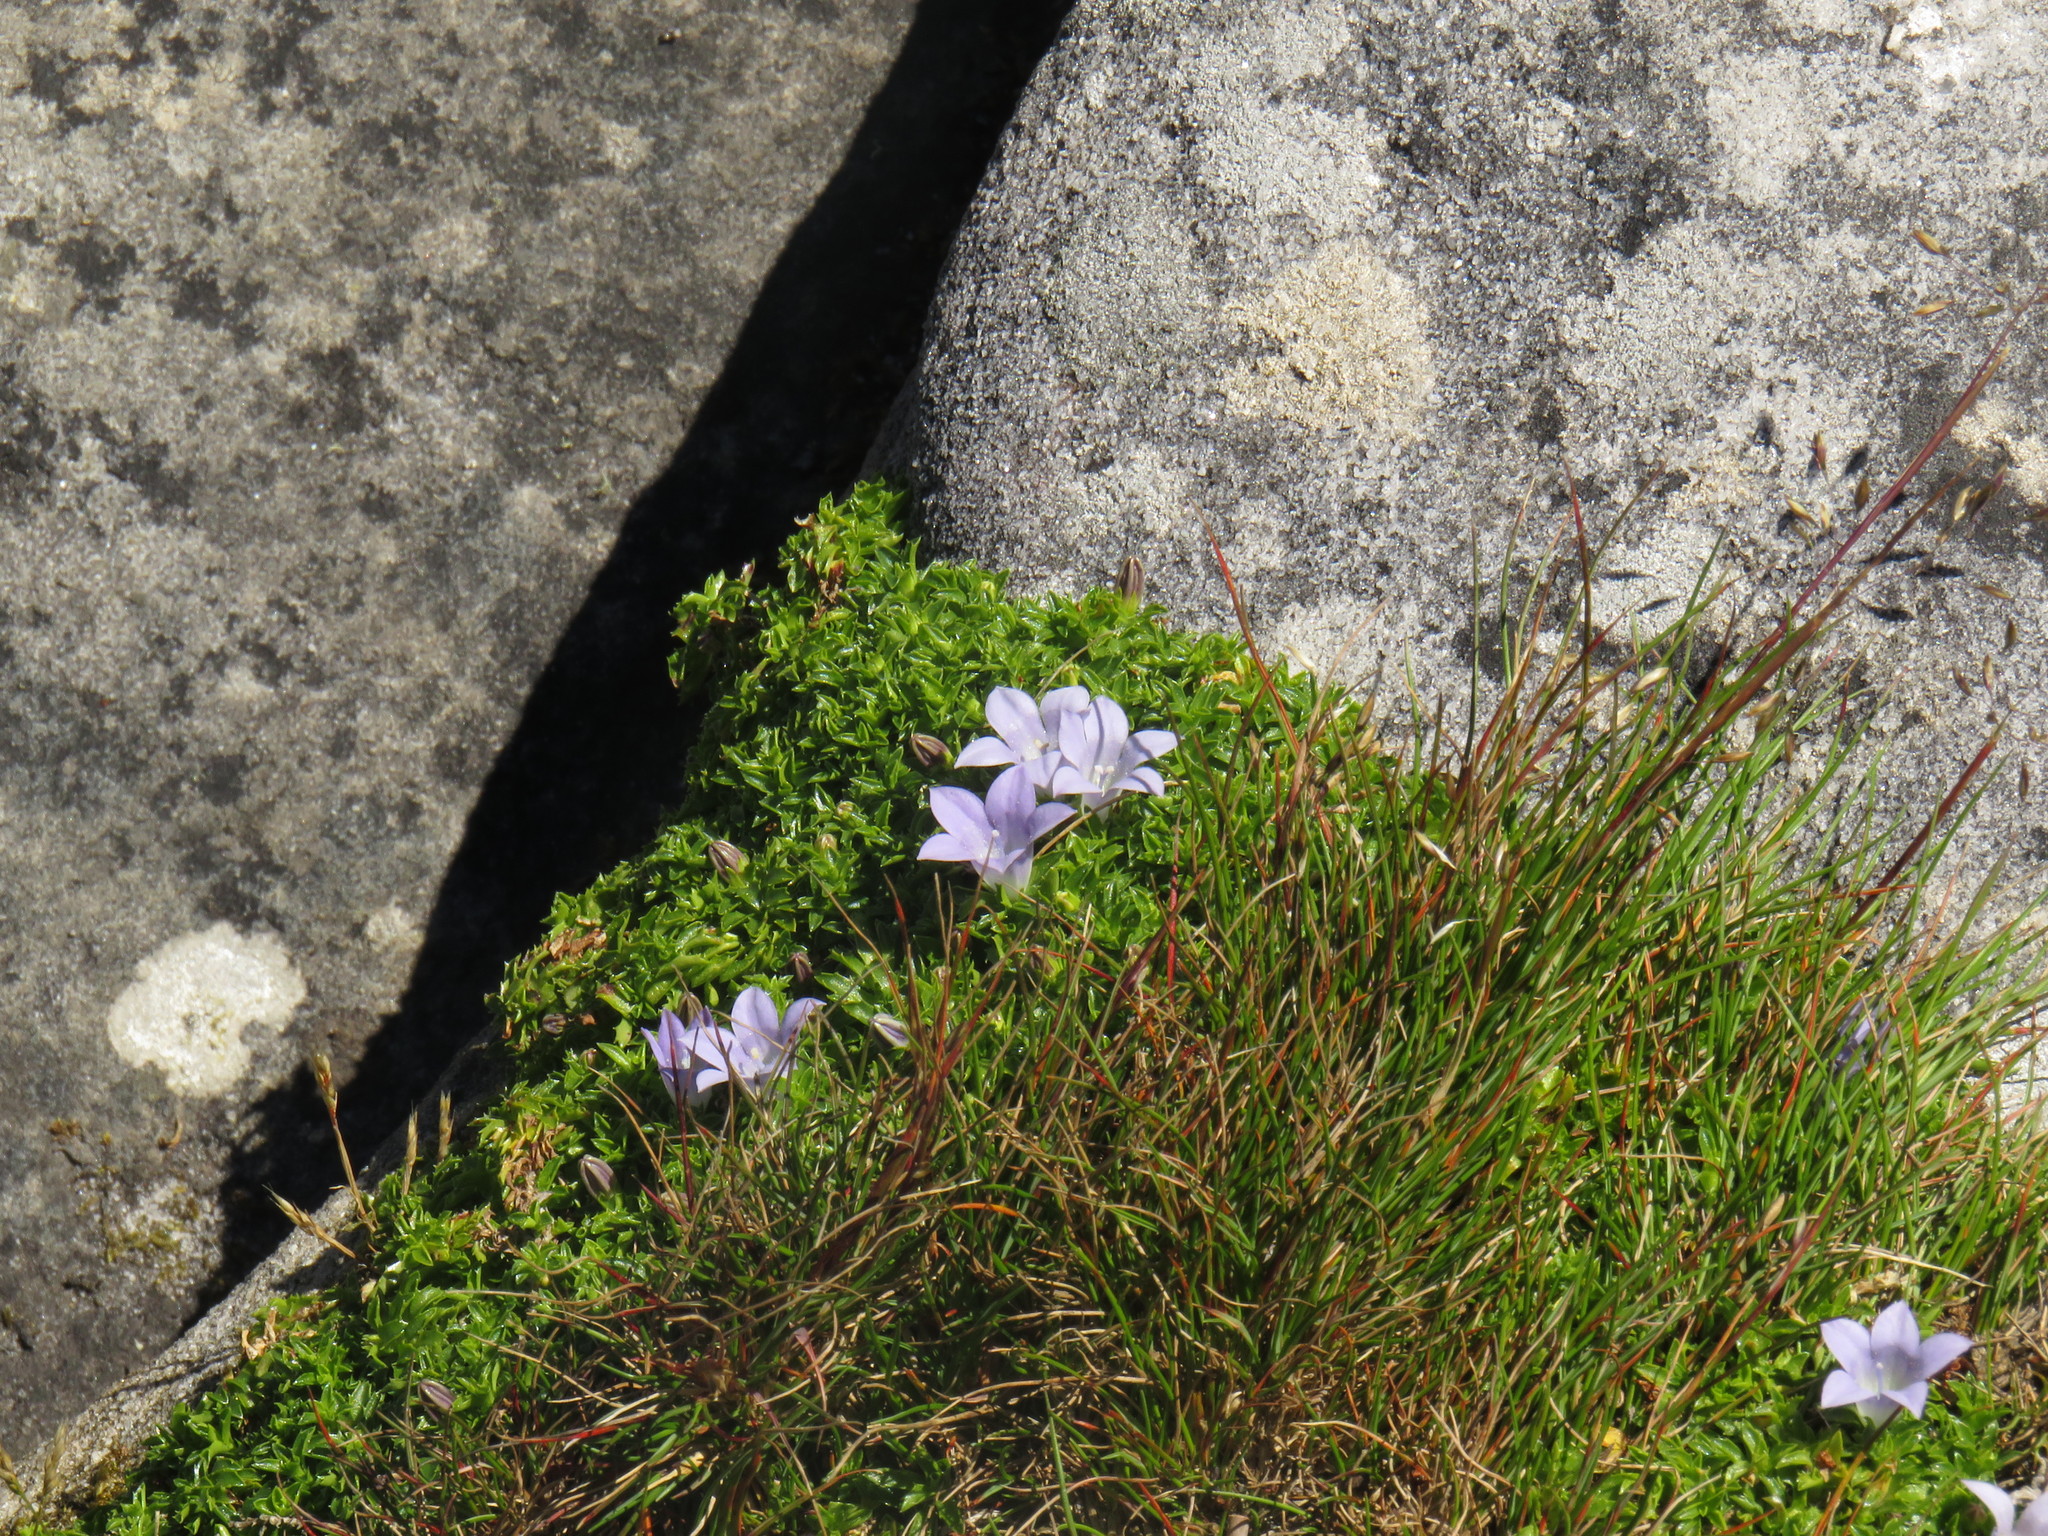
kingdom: Plantae
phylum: Tracheophyta
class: Magnoliopsida
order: Asterales
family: Campanulaceae
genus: Roella
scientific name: Roella muscosa
